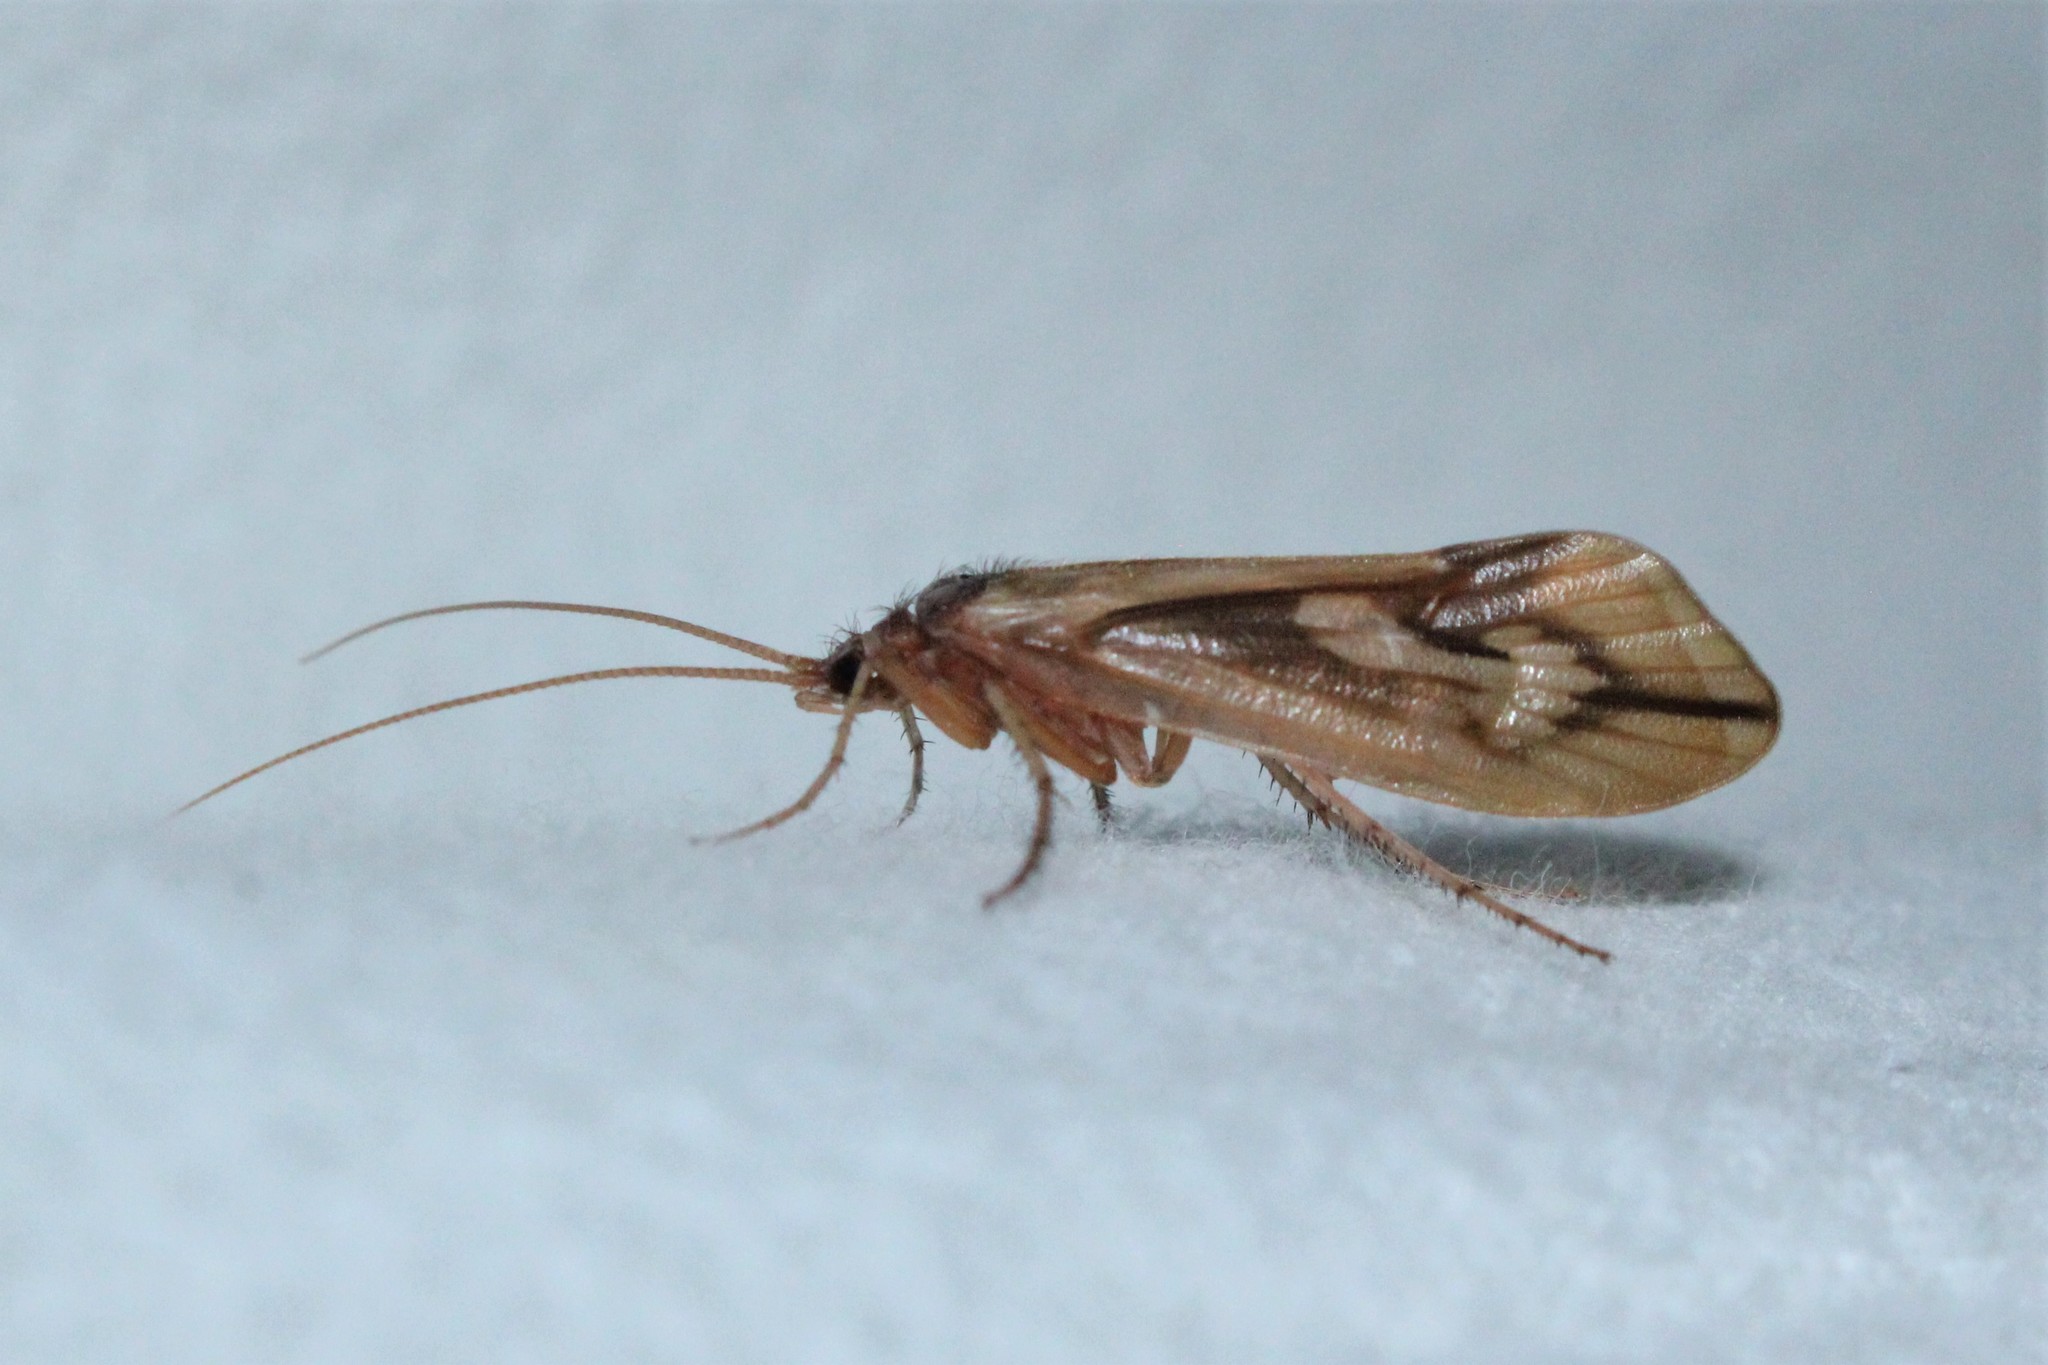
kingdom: Animalia
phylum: Arthropoda
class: Insecta
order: Trichoptera
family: Limnephilidae
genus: Platycentropus
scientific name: Platycentropus radiatus
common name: Chocolate-and-cream sedge
